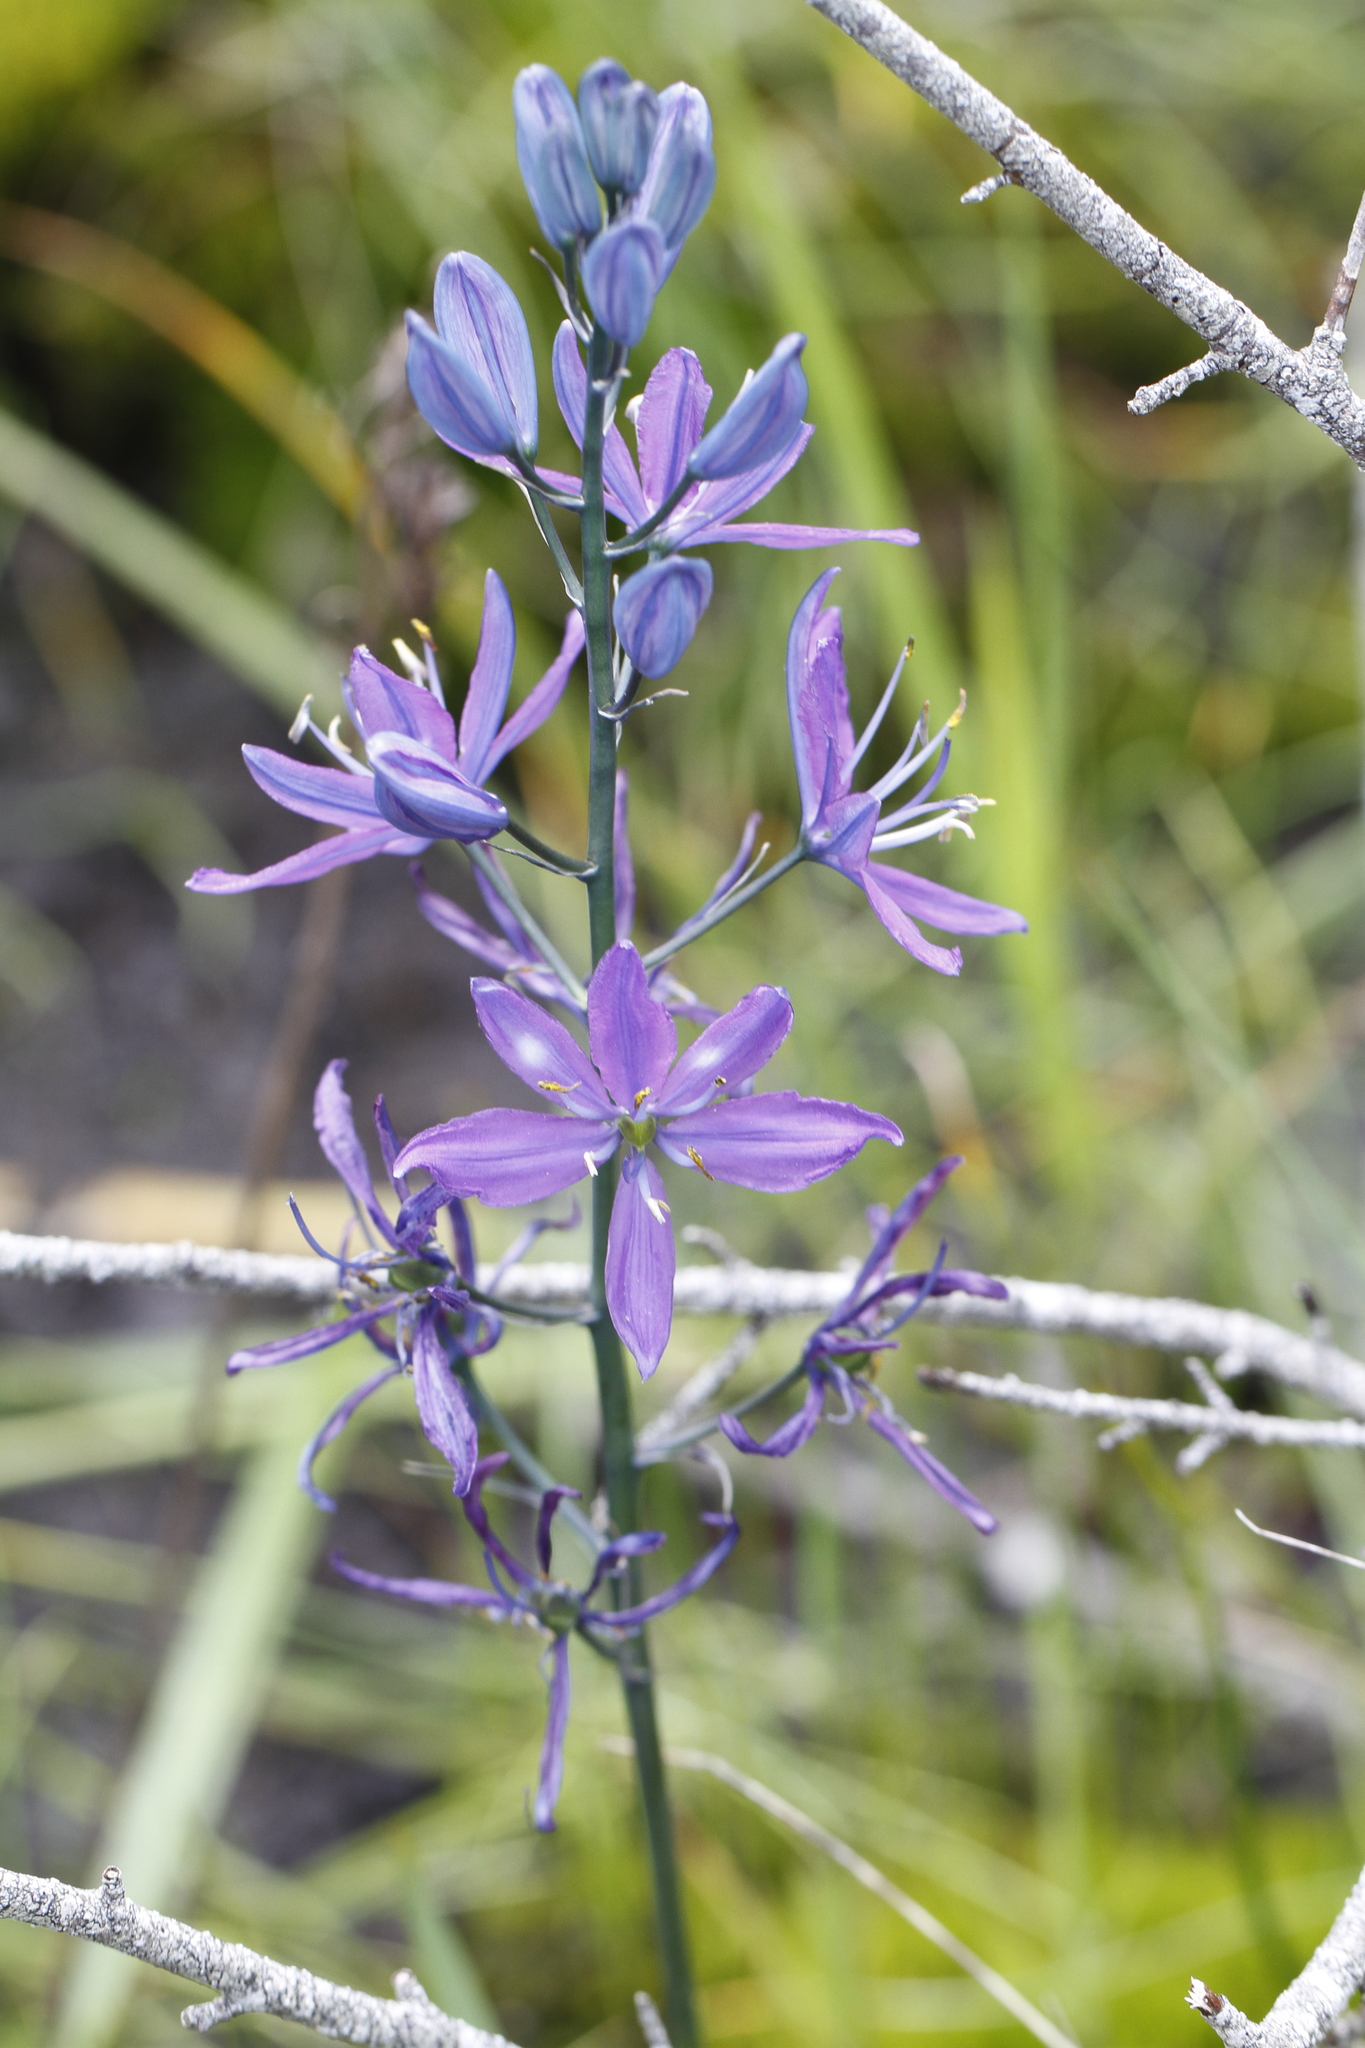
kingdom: Plantae
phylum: Tracheophyta
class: Liliopsida
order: Asparagales
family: Asparagaceae
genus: Camassia
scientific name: Camassia quamash
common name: Common camas
